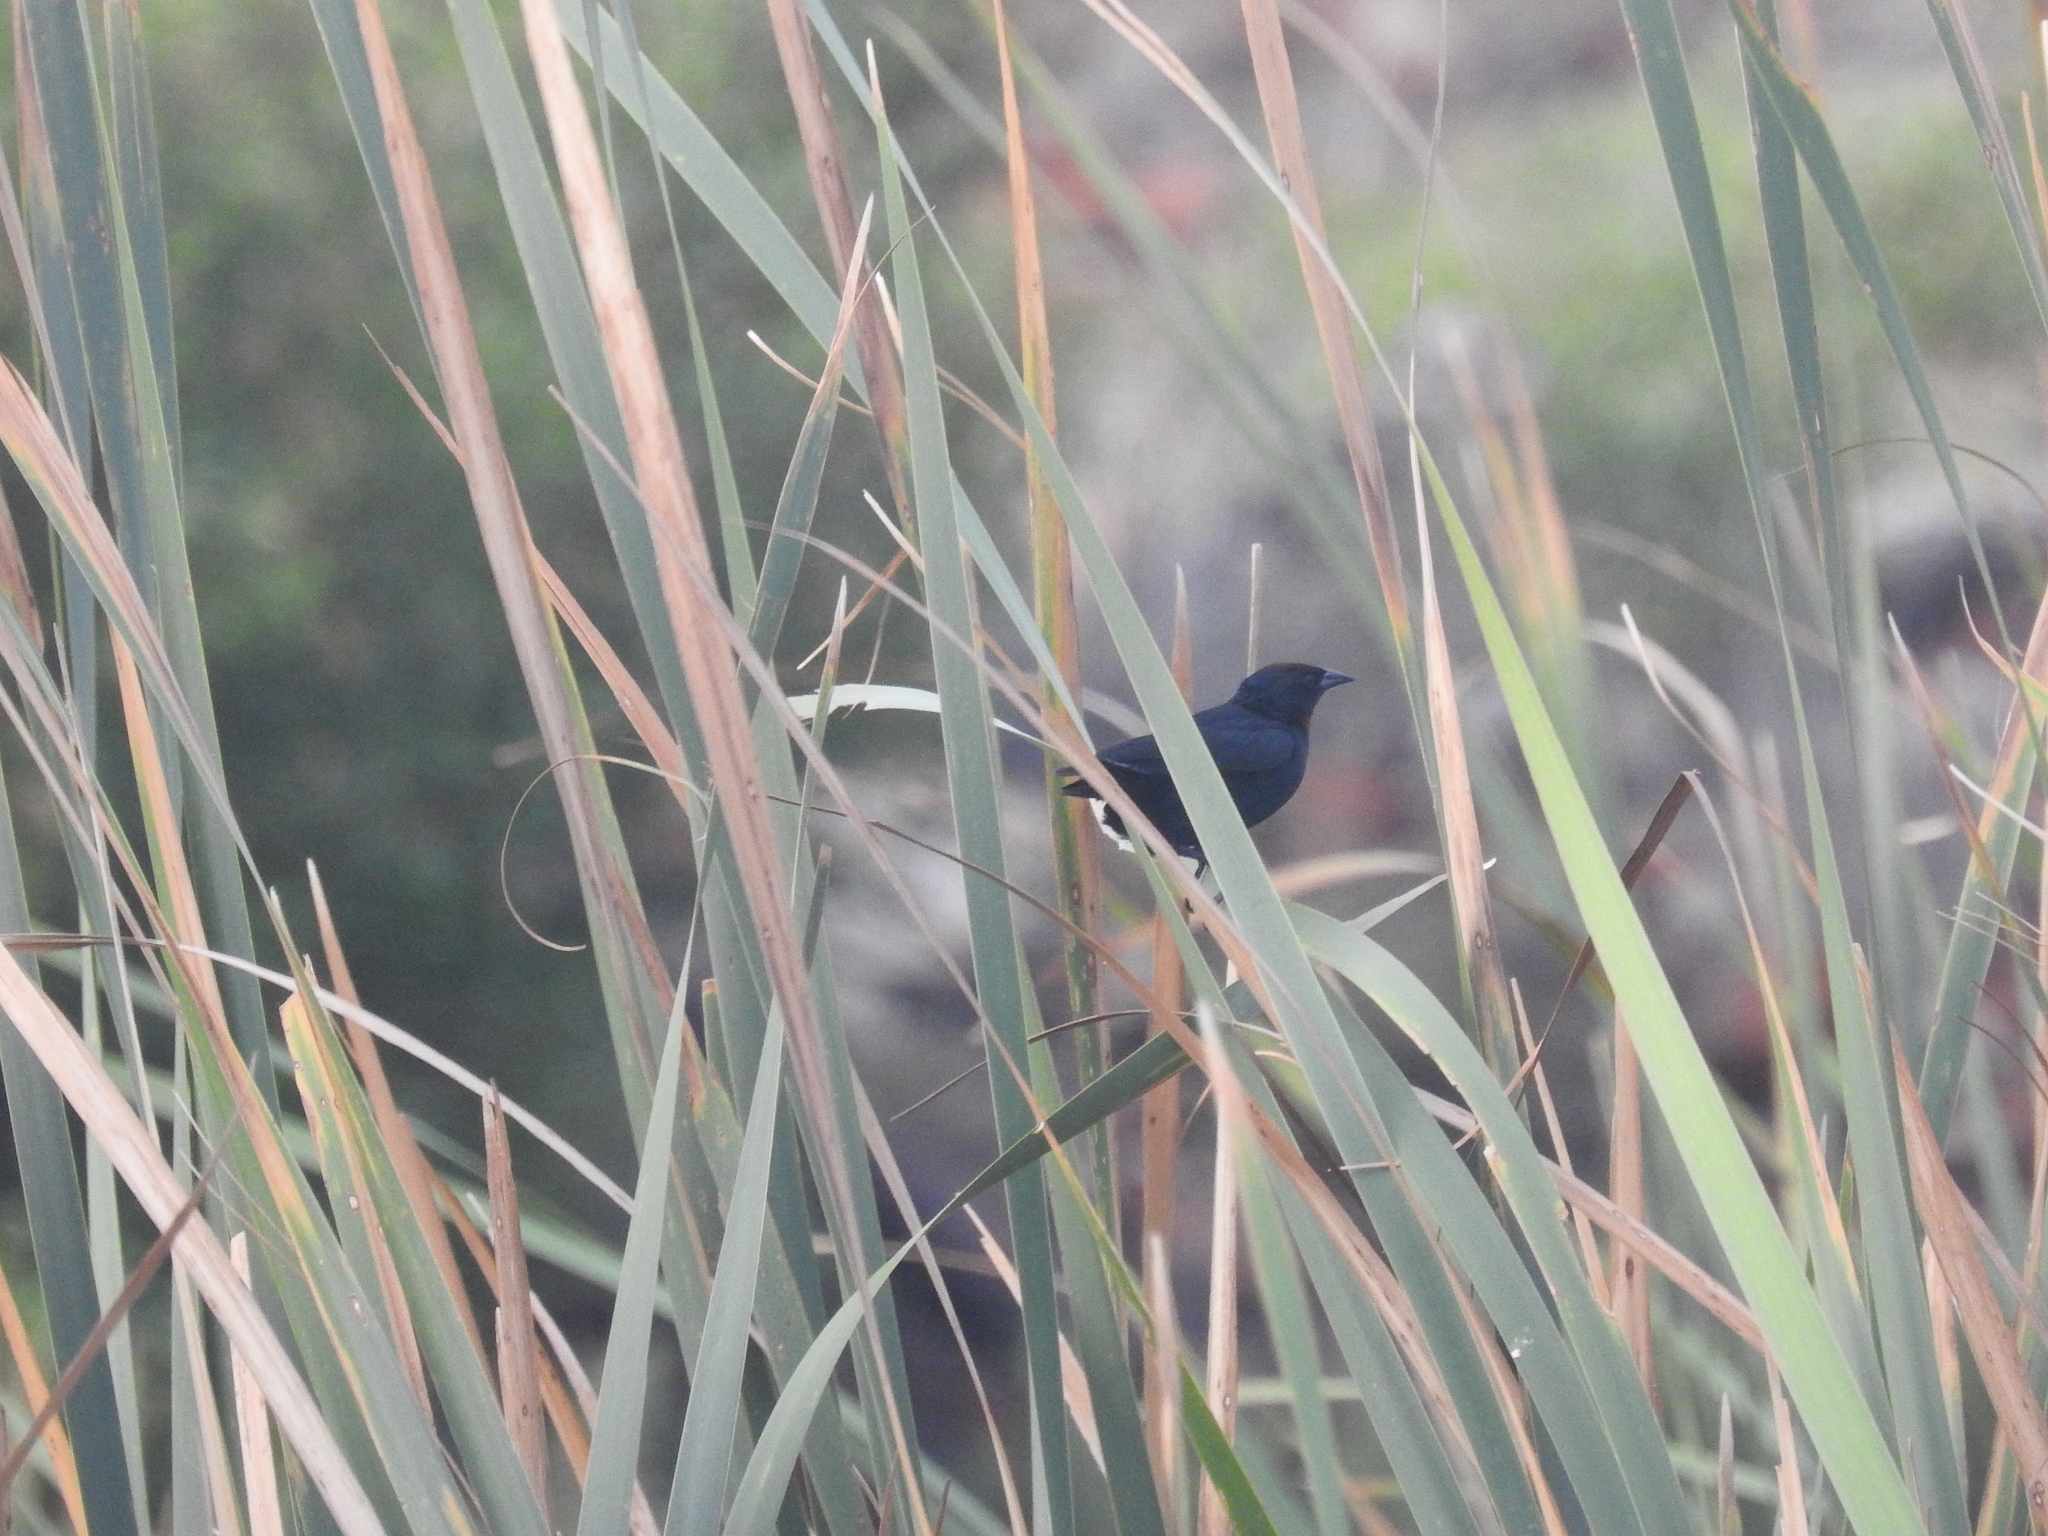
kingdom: Animalia
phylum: Chordata
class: Aves
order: Passeriformes
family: Icteridae
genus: Chrysomus
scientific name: Chrysomus ruficapillus
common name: Chestnut-capped blackbird
